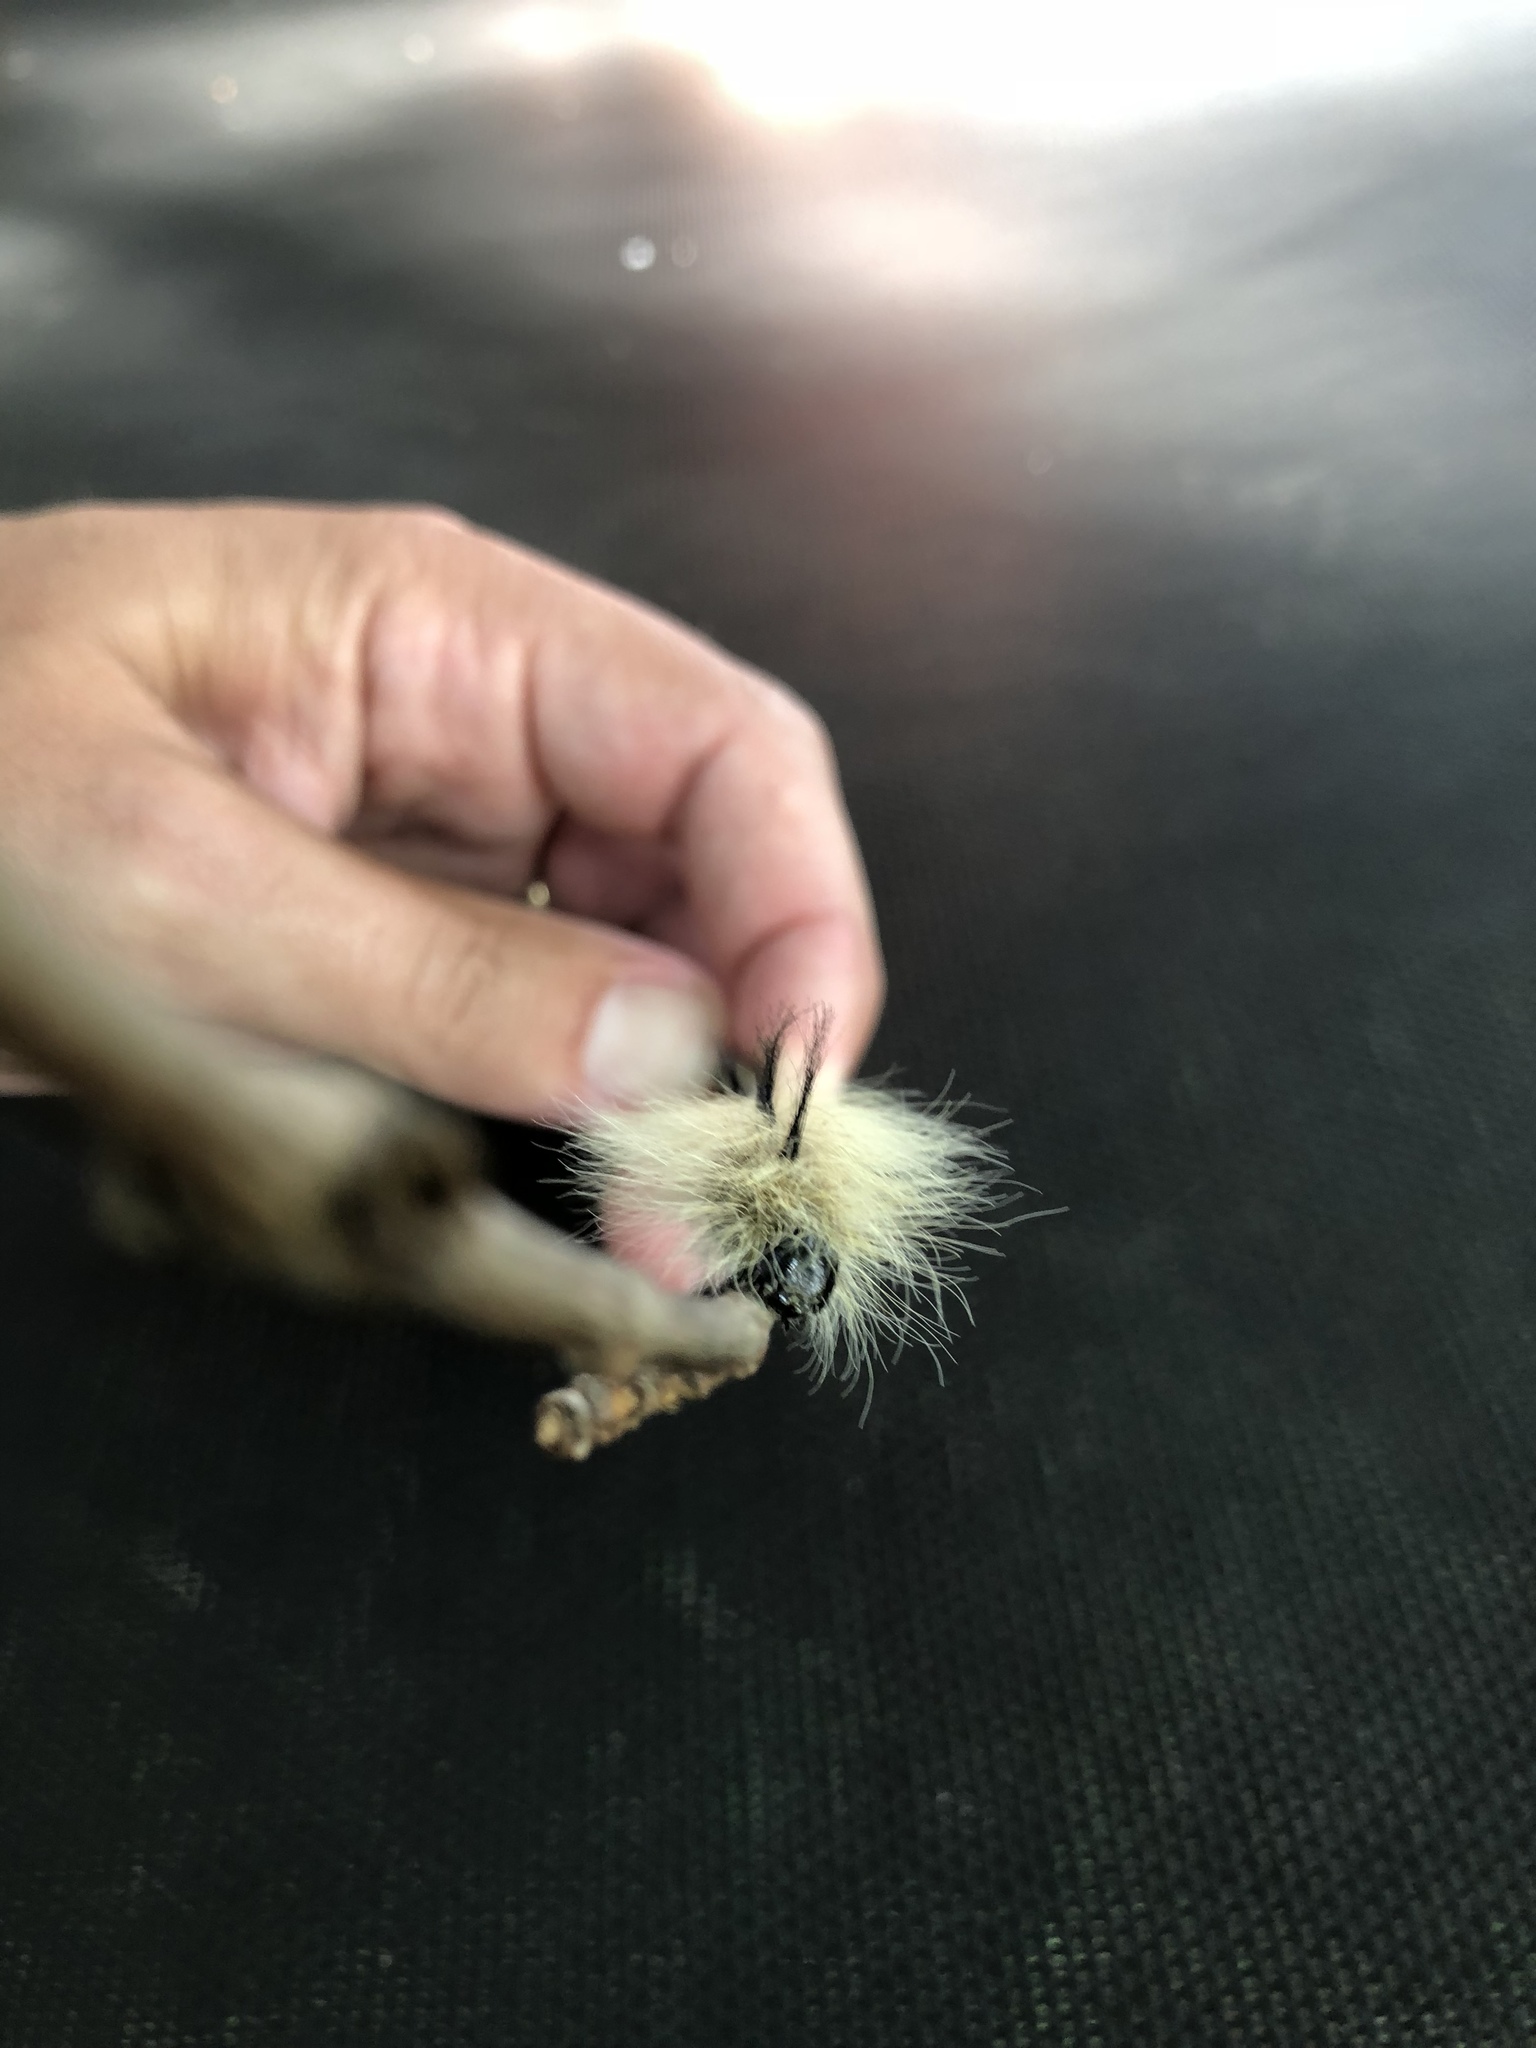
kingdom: Animalia
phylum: Arthropoda
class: Insecta
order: Lepidoptera
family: Noctuidae
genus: Acronicta
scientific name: Acronicta lepusculina
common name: Cottonwood dagger
